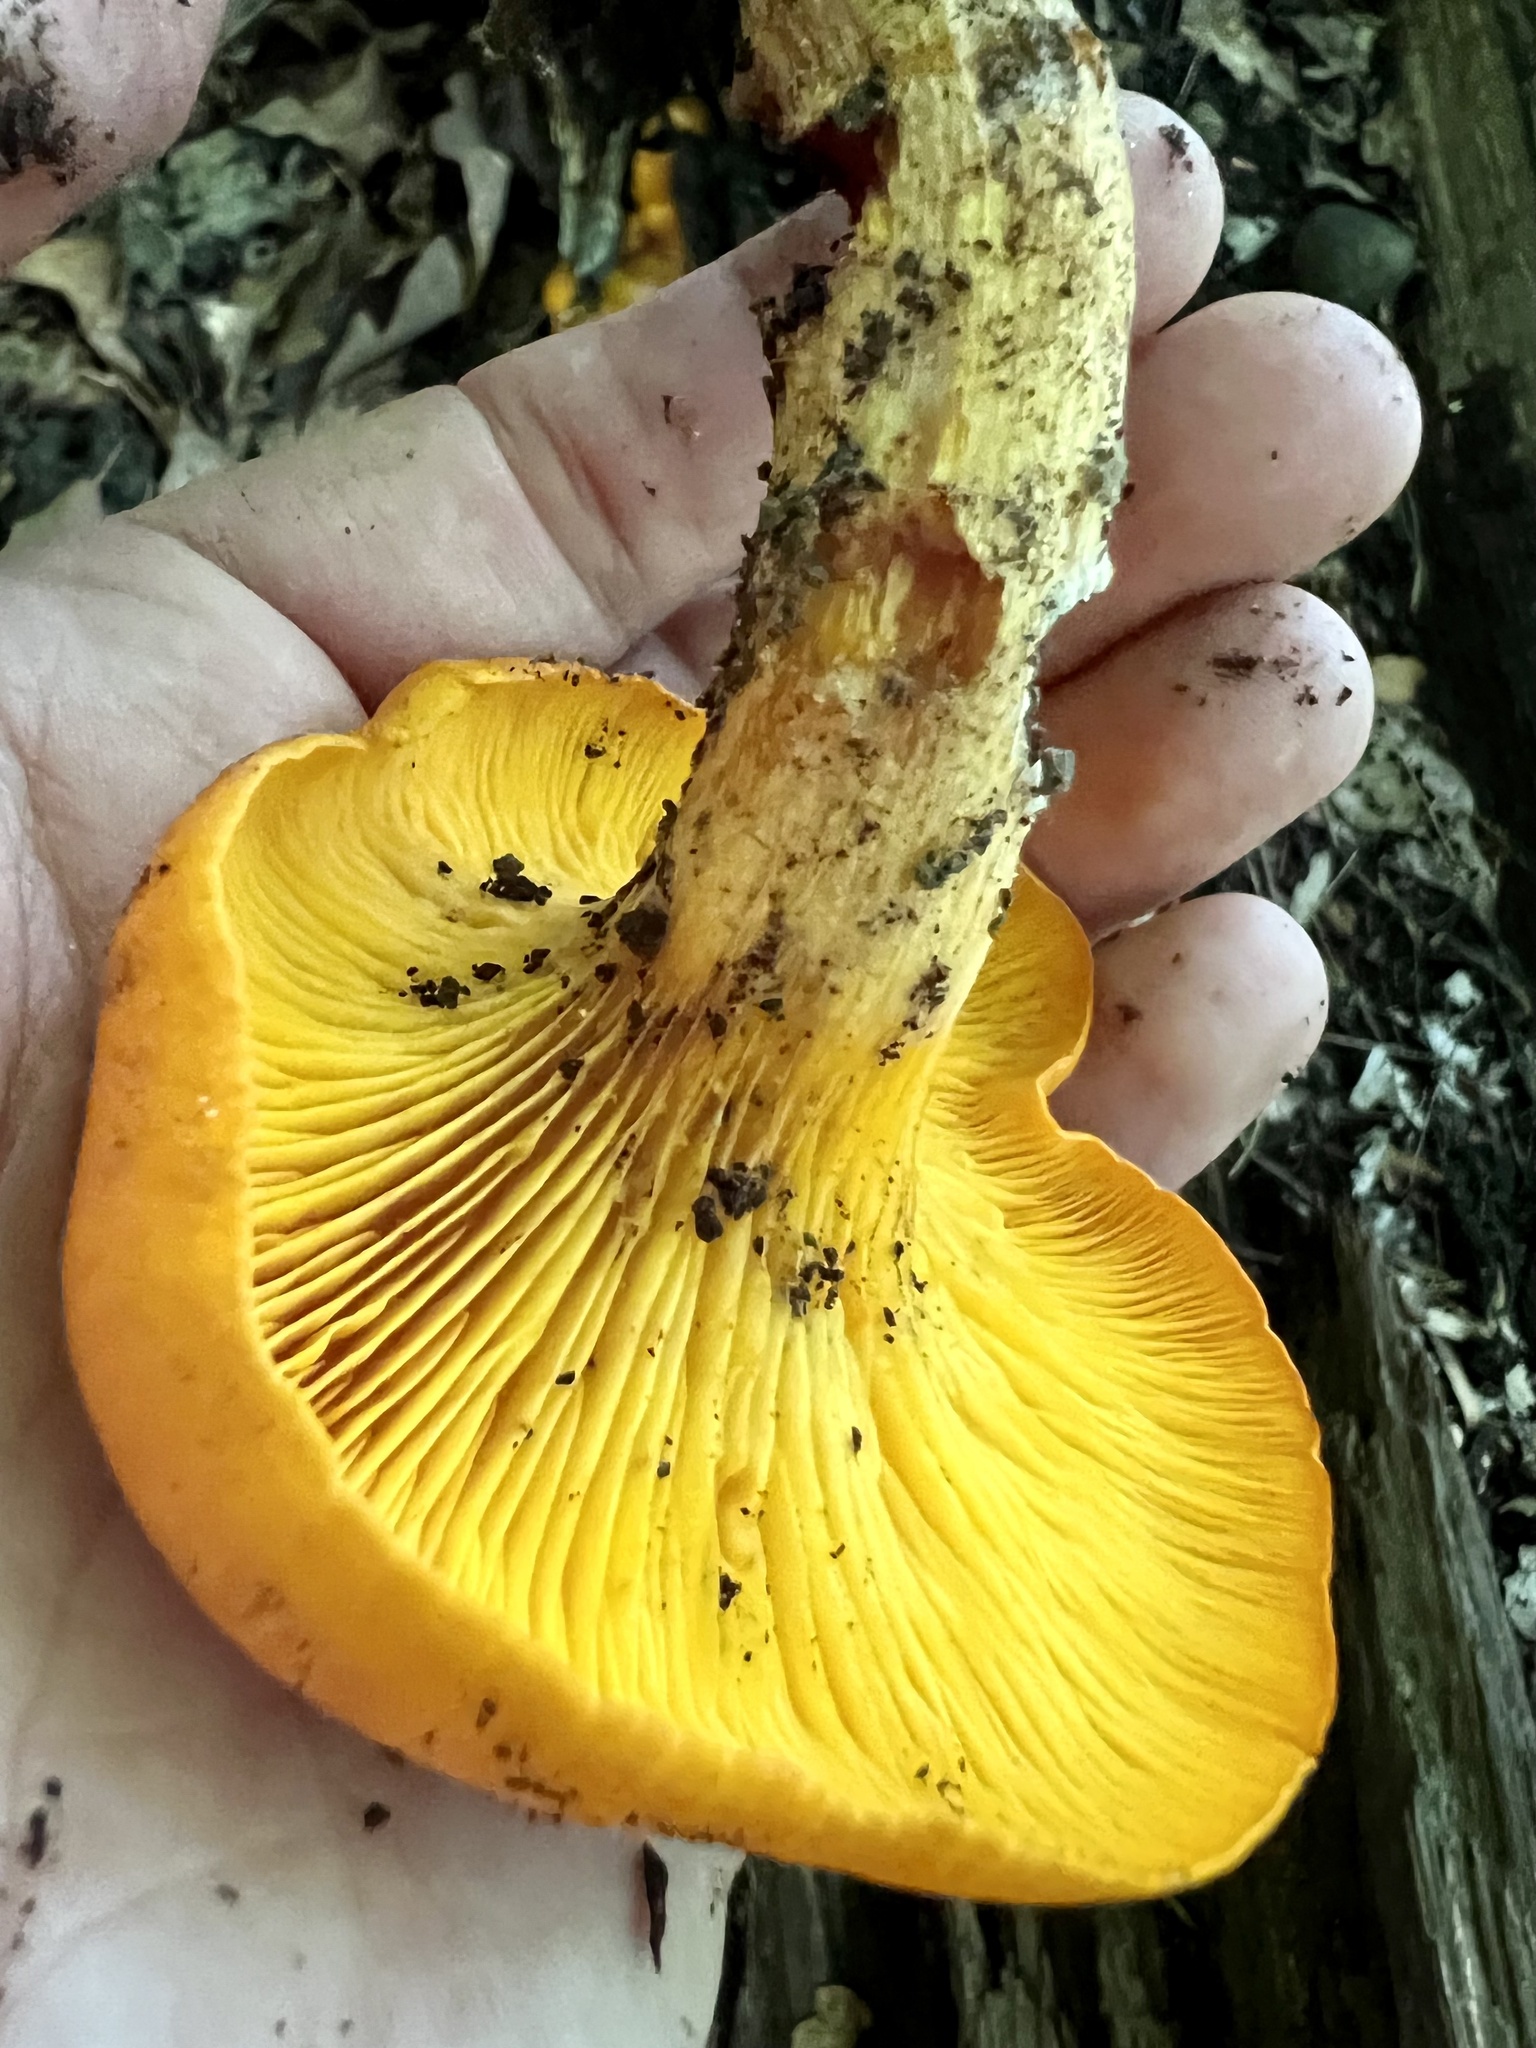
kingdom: Fungi
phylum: Basidiomycota
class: Agaricomycetes
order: Agaricales
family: Omphalotaceae
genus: Omphalotus
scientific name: Omphalotus illudens
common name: Jack o lantern
